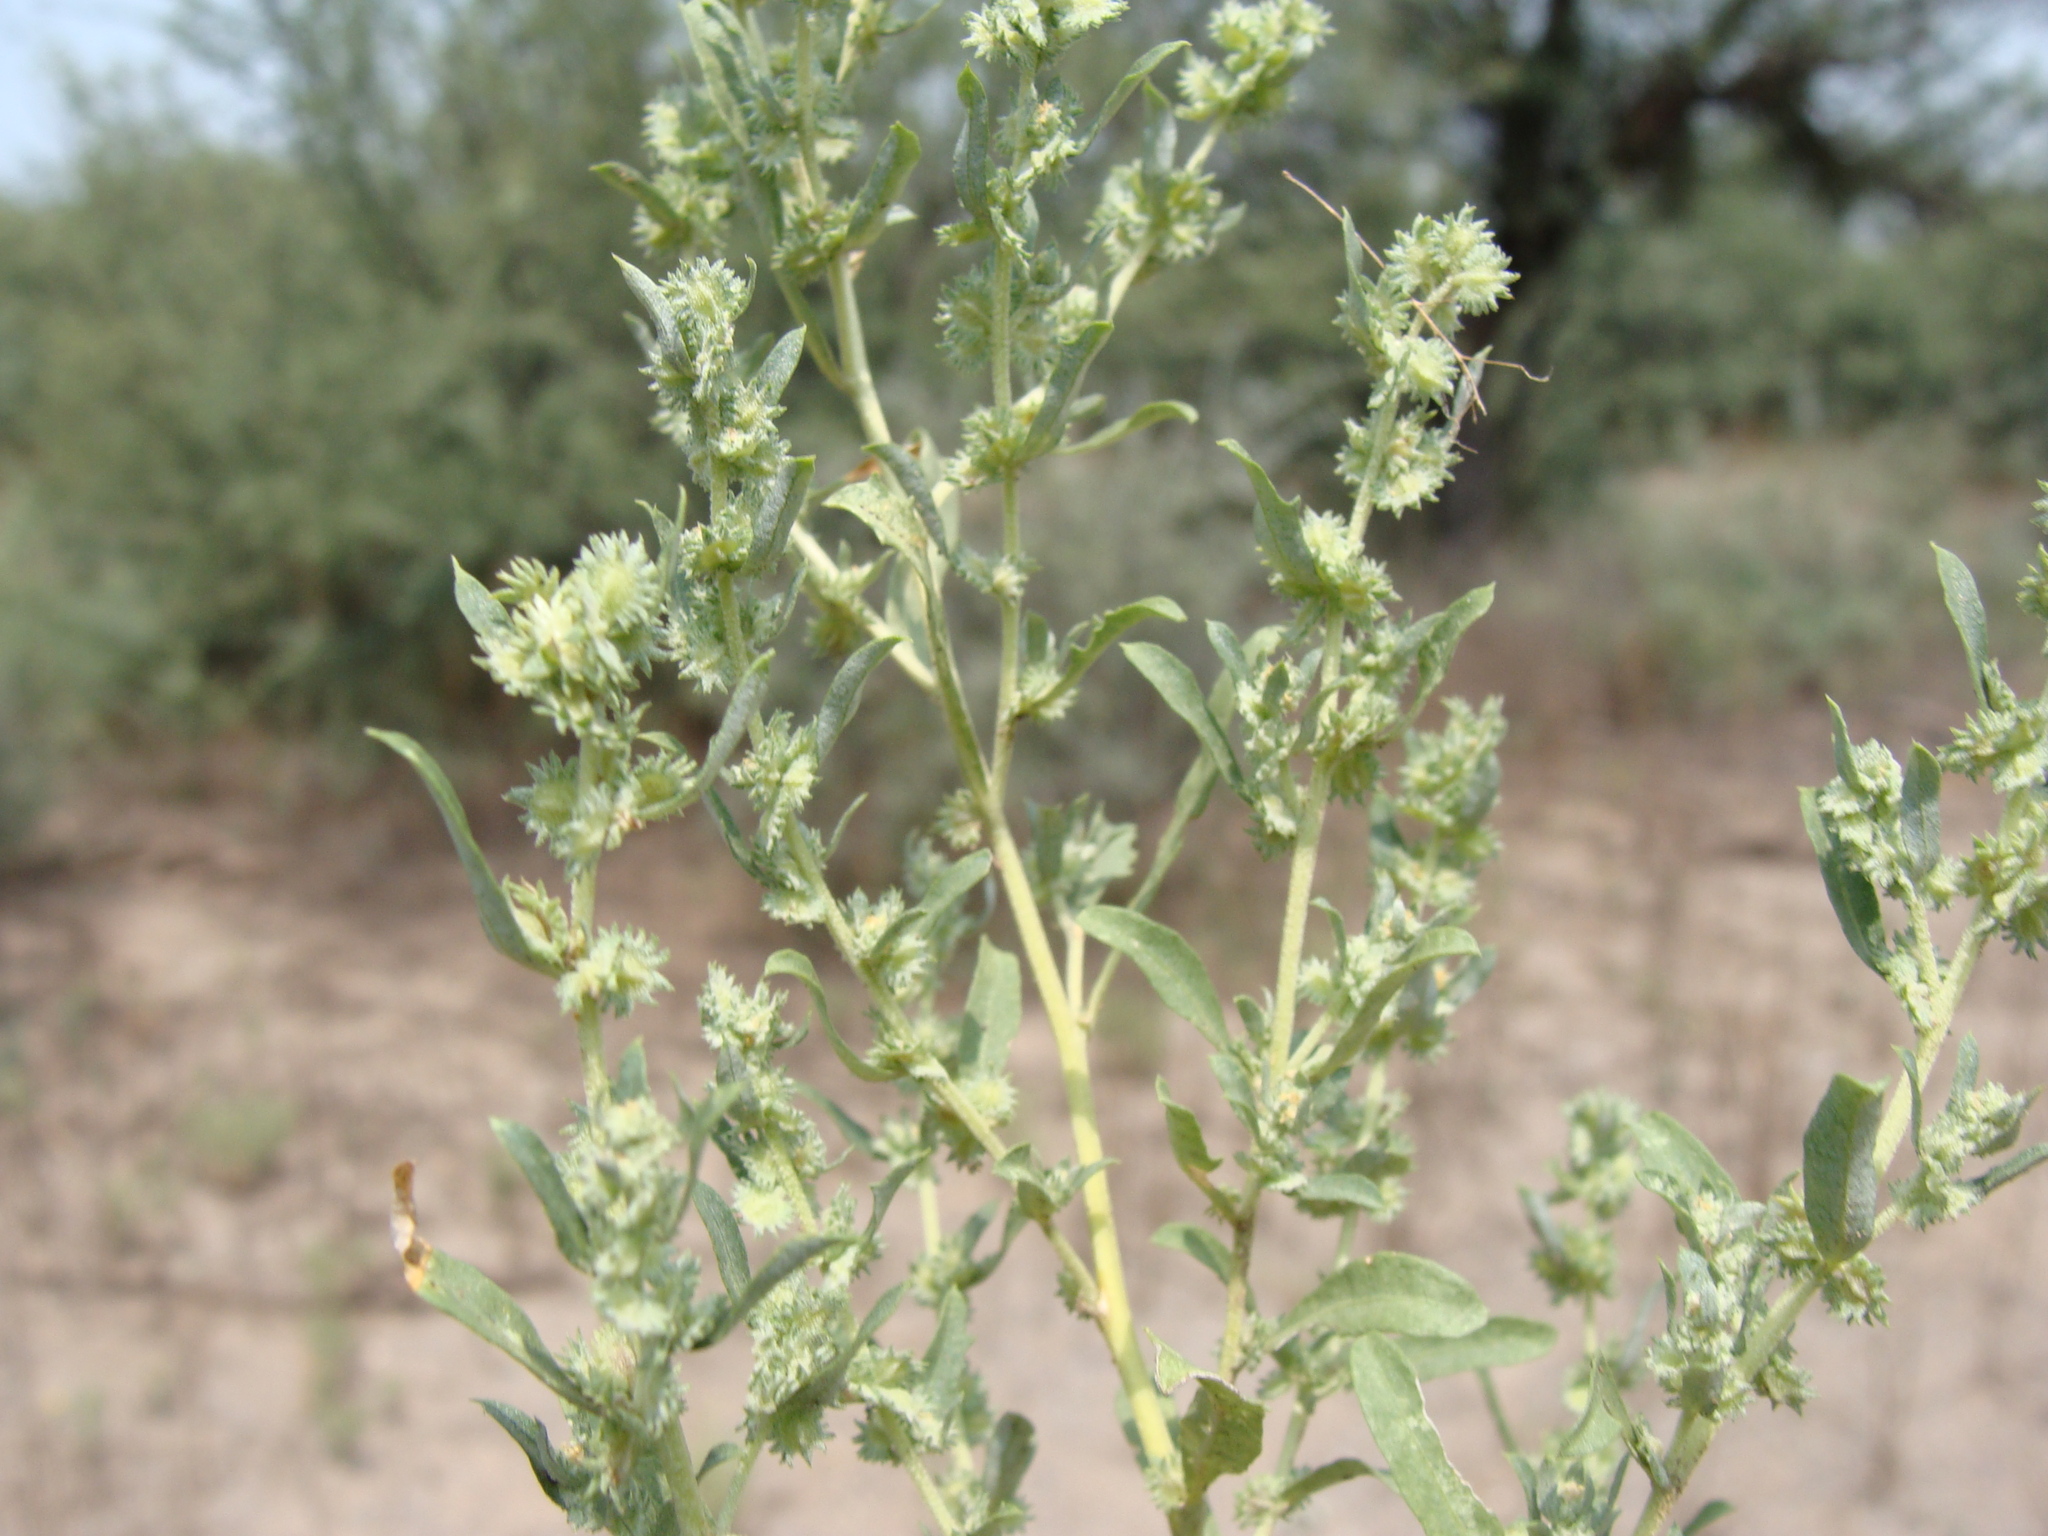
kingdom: Plantae
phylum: Tracheophyta
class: Magnoliopsida
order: Caryophyllales
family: Amaranthaceae
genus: Atriplex
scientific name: Atriplex elegans
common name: Wheelscale orach
